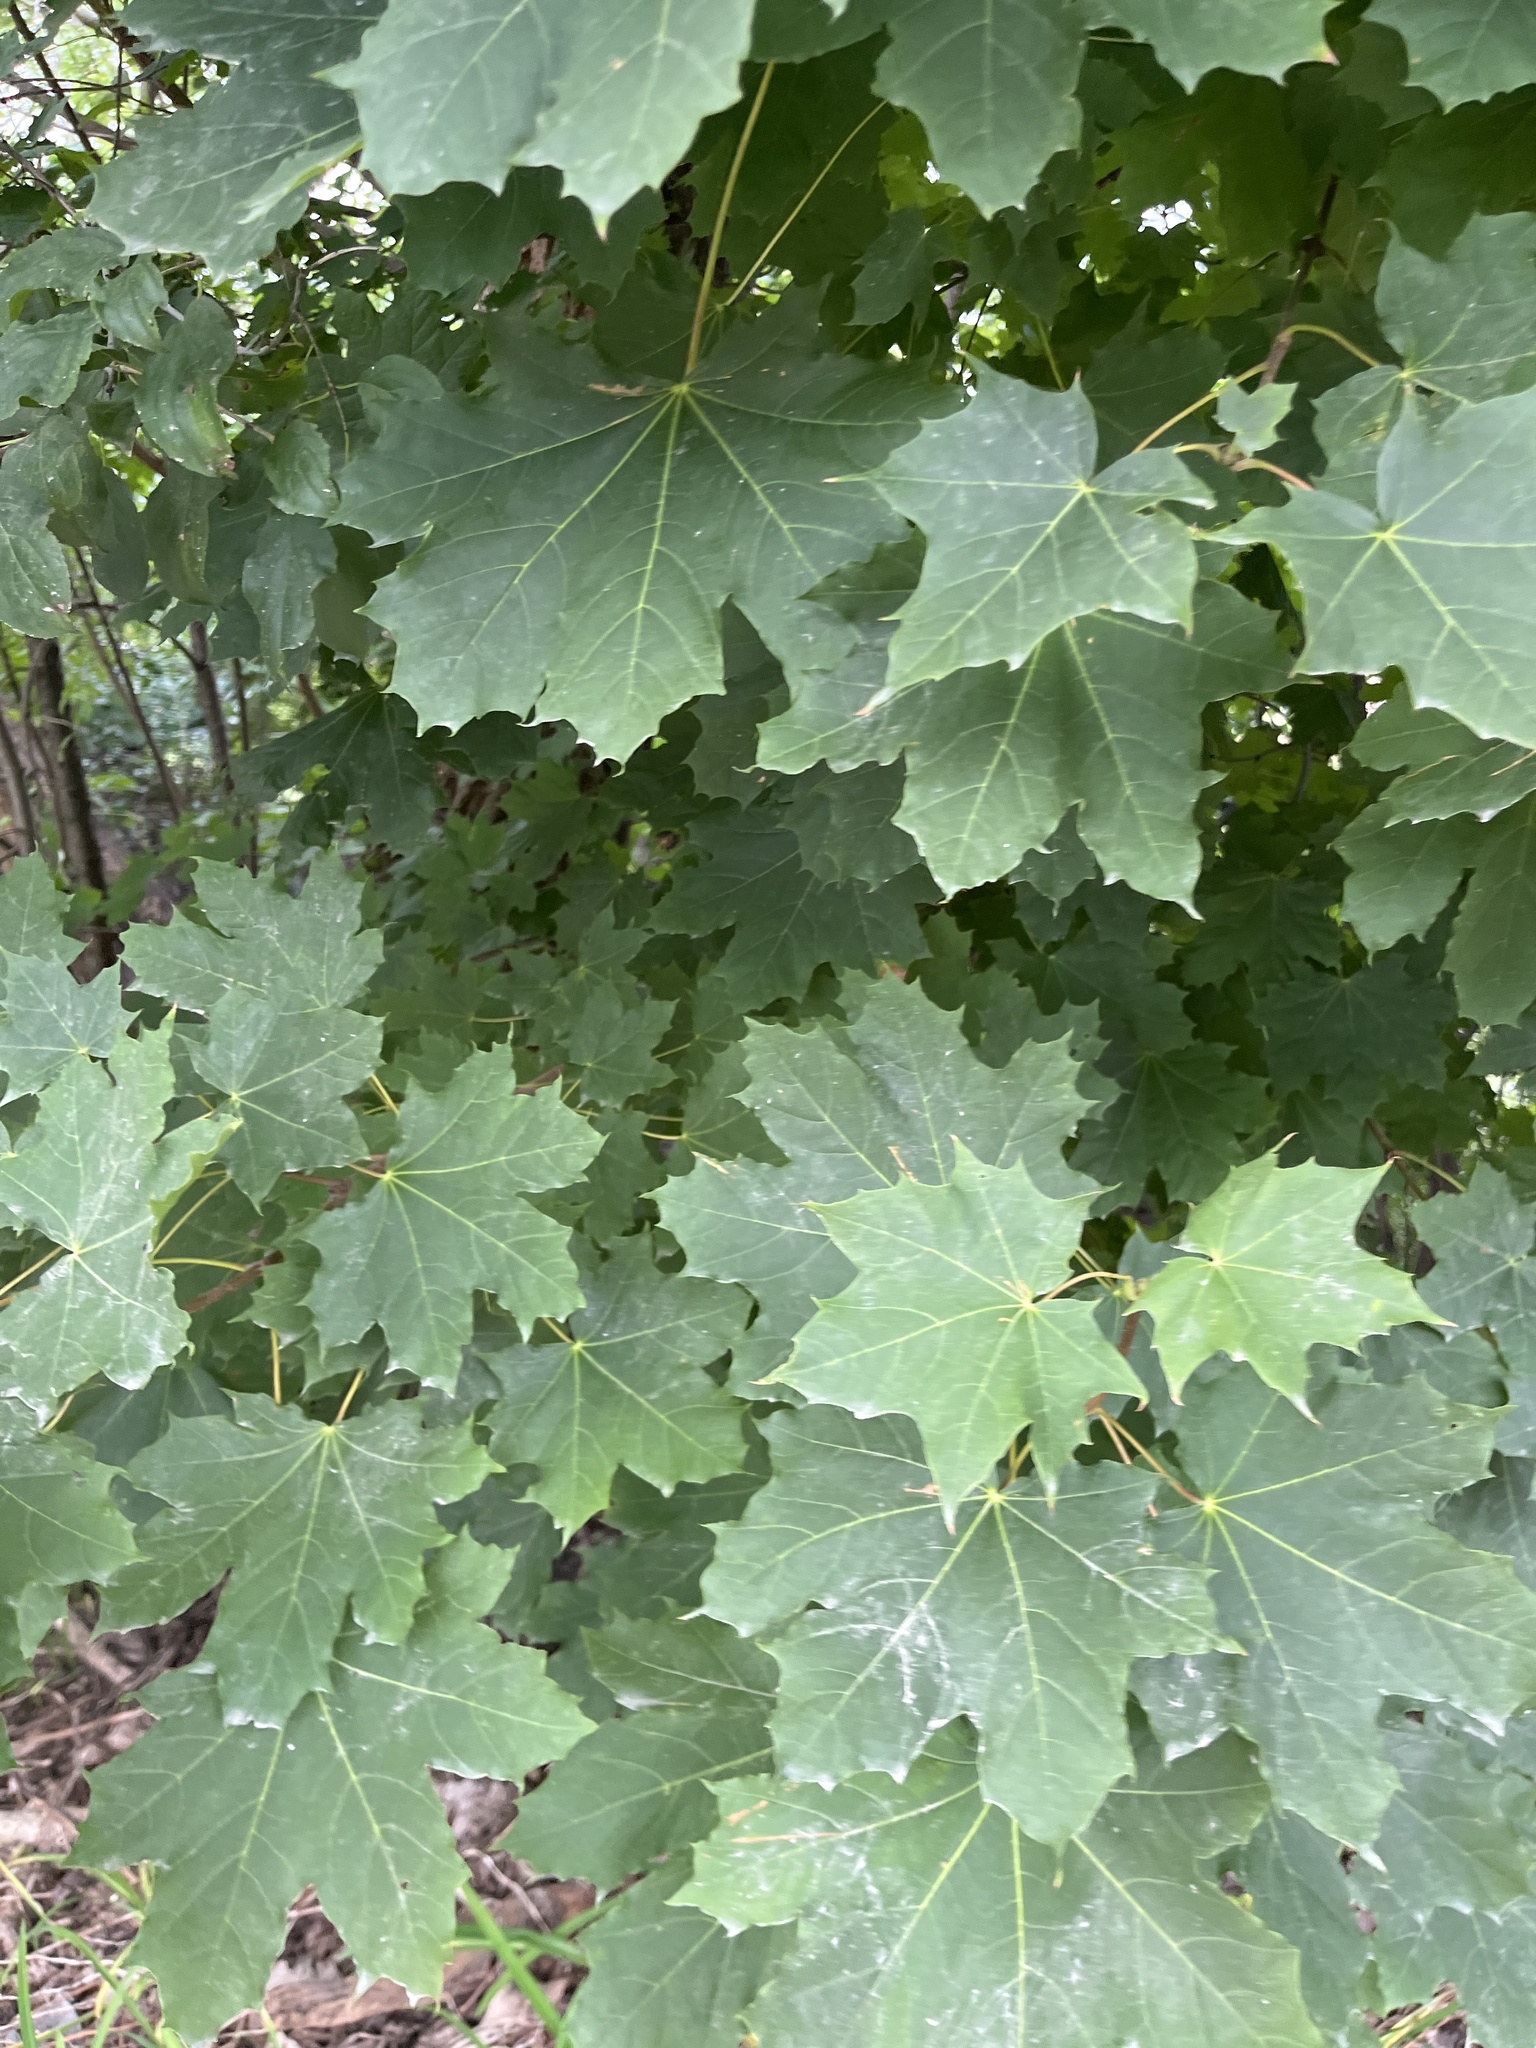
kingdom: Plantae
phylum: Tracheophyta
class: Magnoliopsida
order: Sapindales
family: Sapindaceae
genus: Acer
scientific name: Acer platanoides
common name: Norway maple
